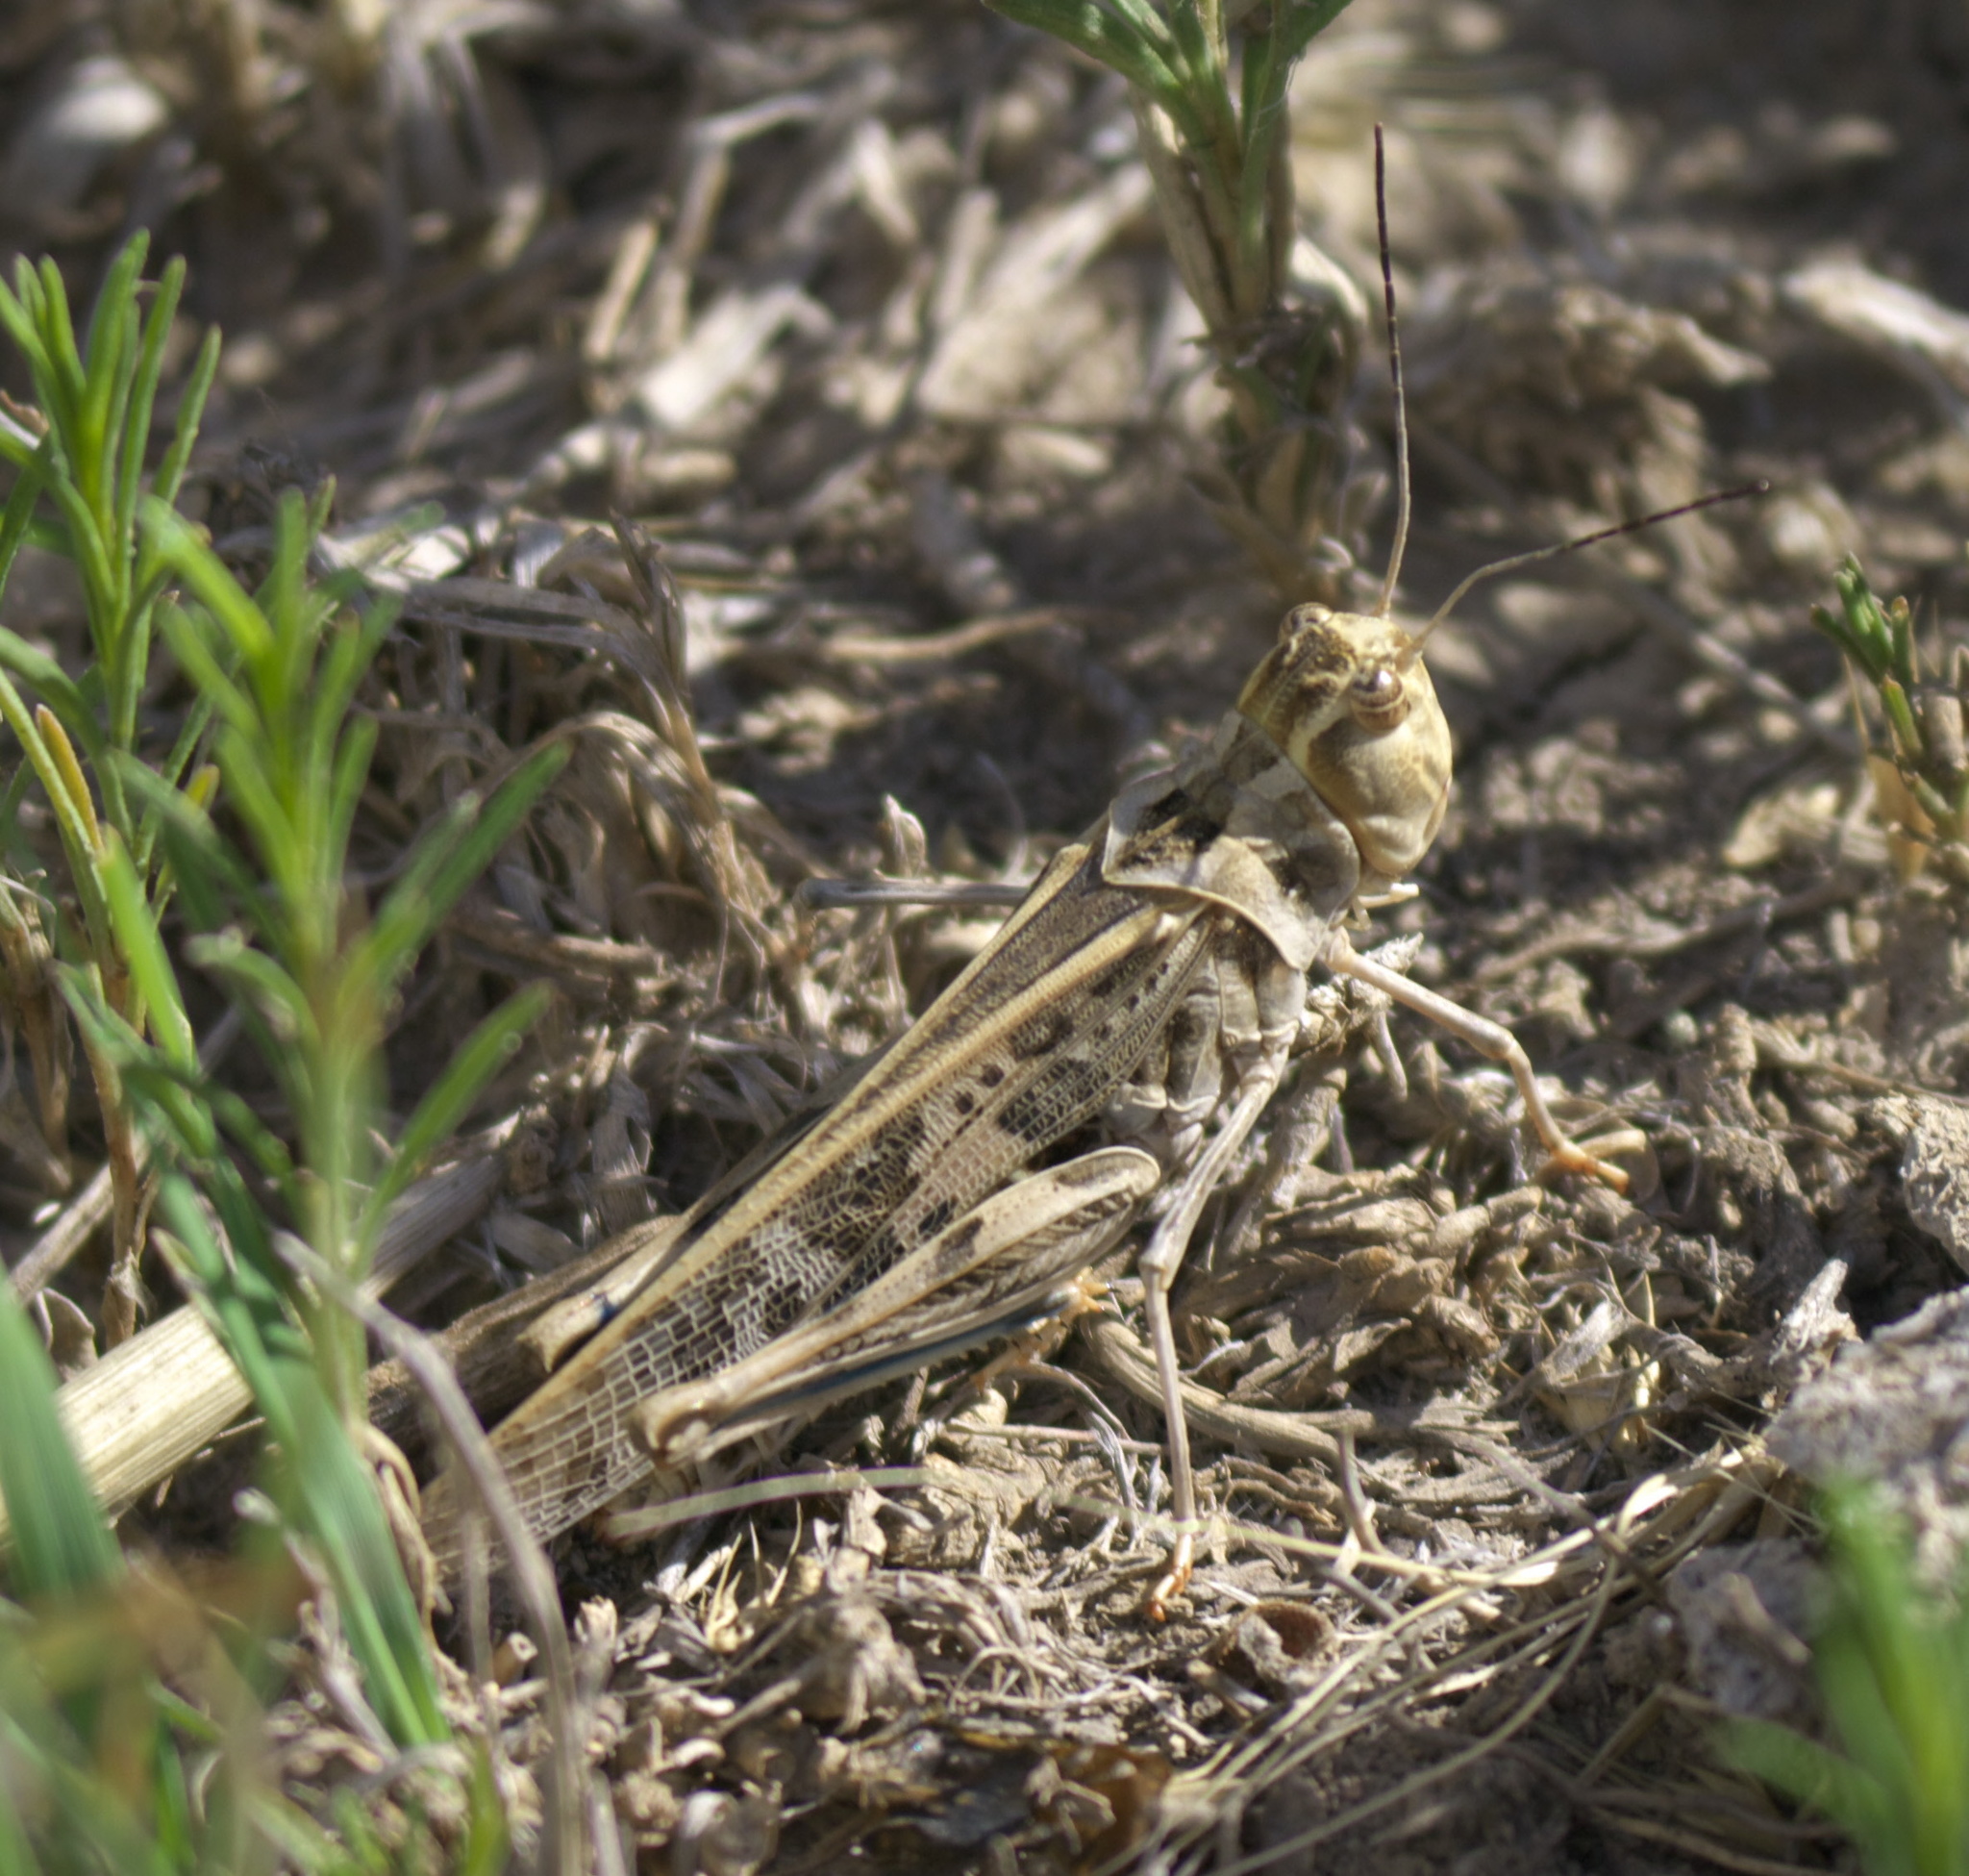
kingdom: Animalia
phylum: Arthropoda
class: Insecta
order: Orthoptera
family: Acrididae
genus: Metator
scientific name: Metator pardalinus
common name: Blue-legged grasshopper
